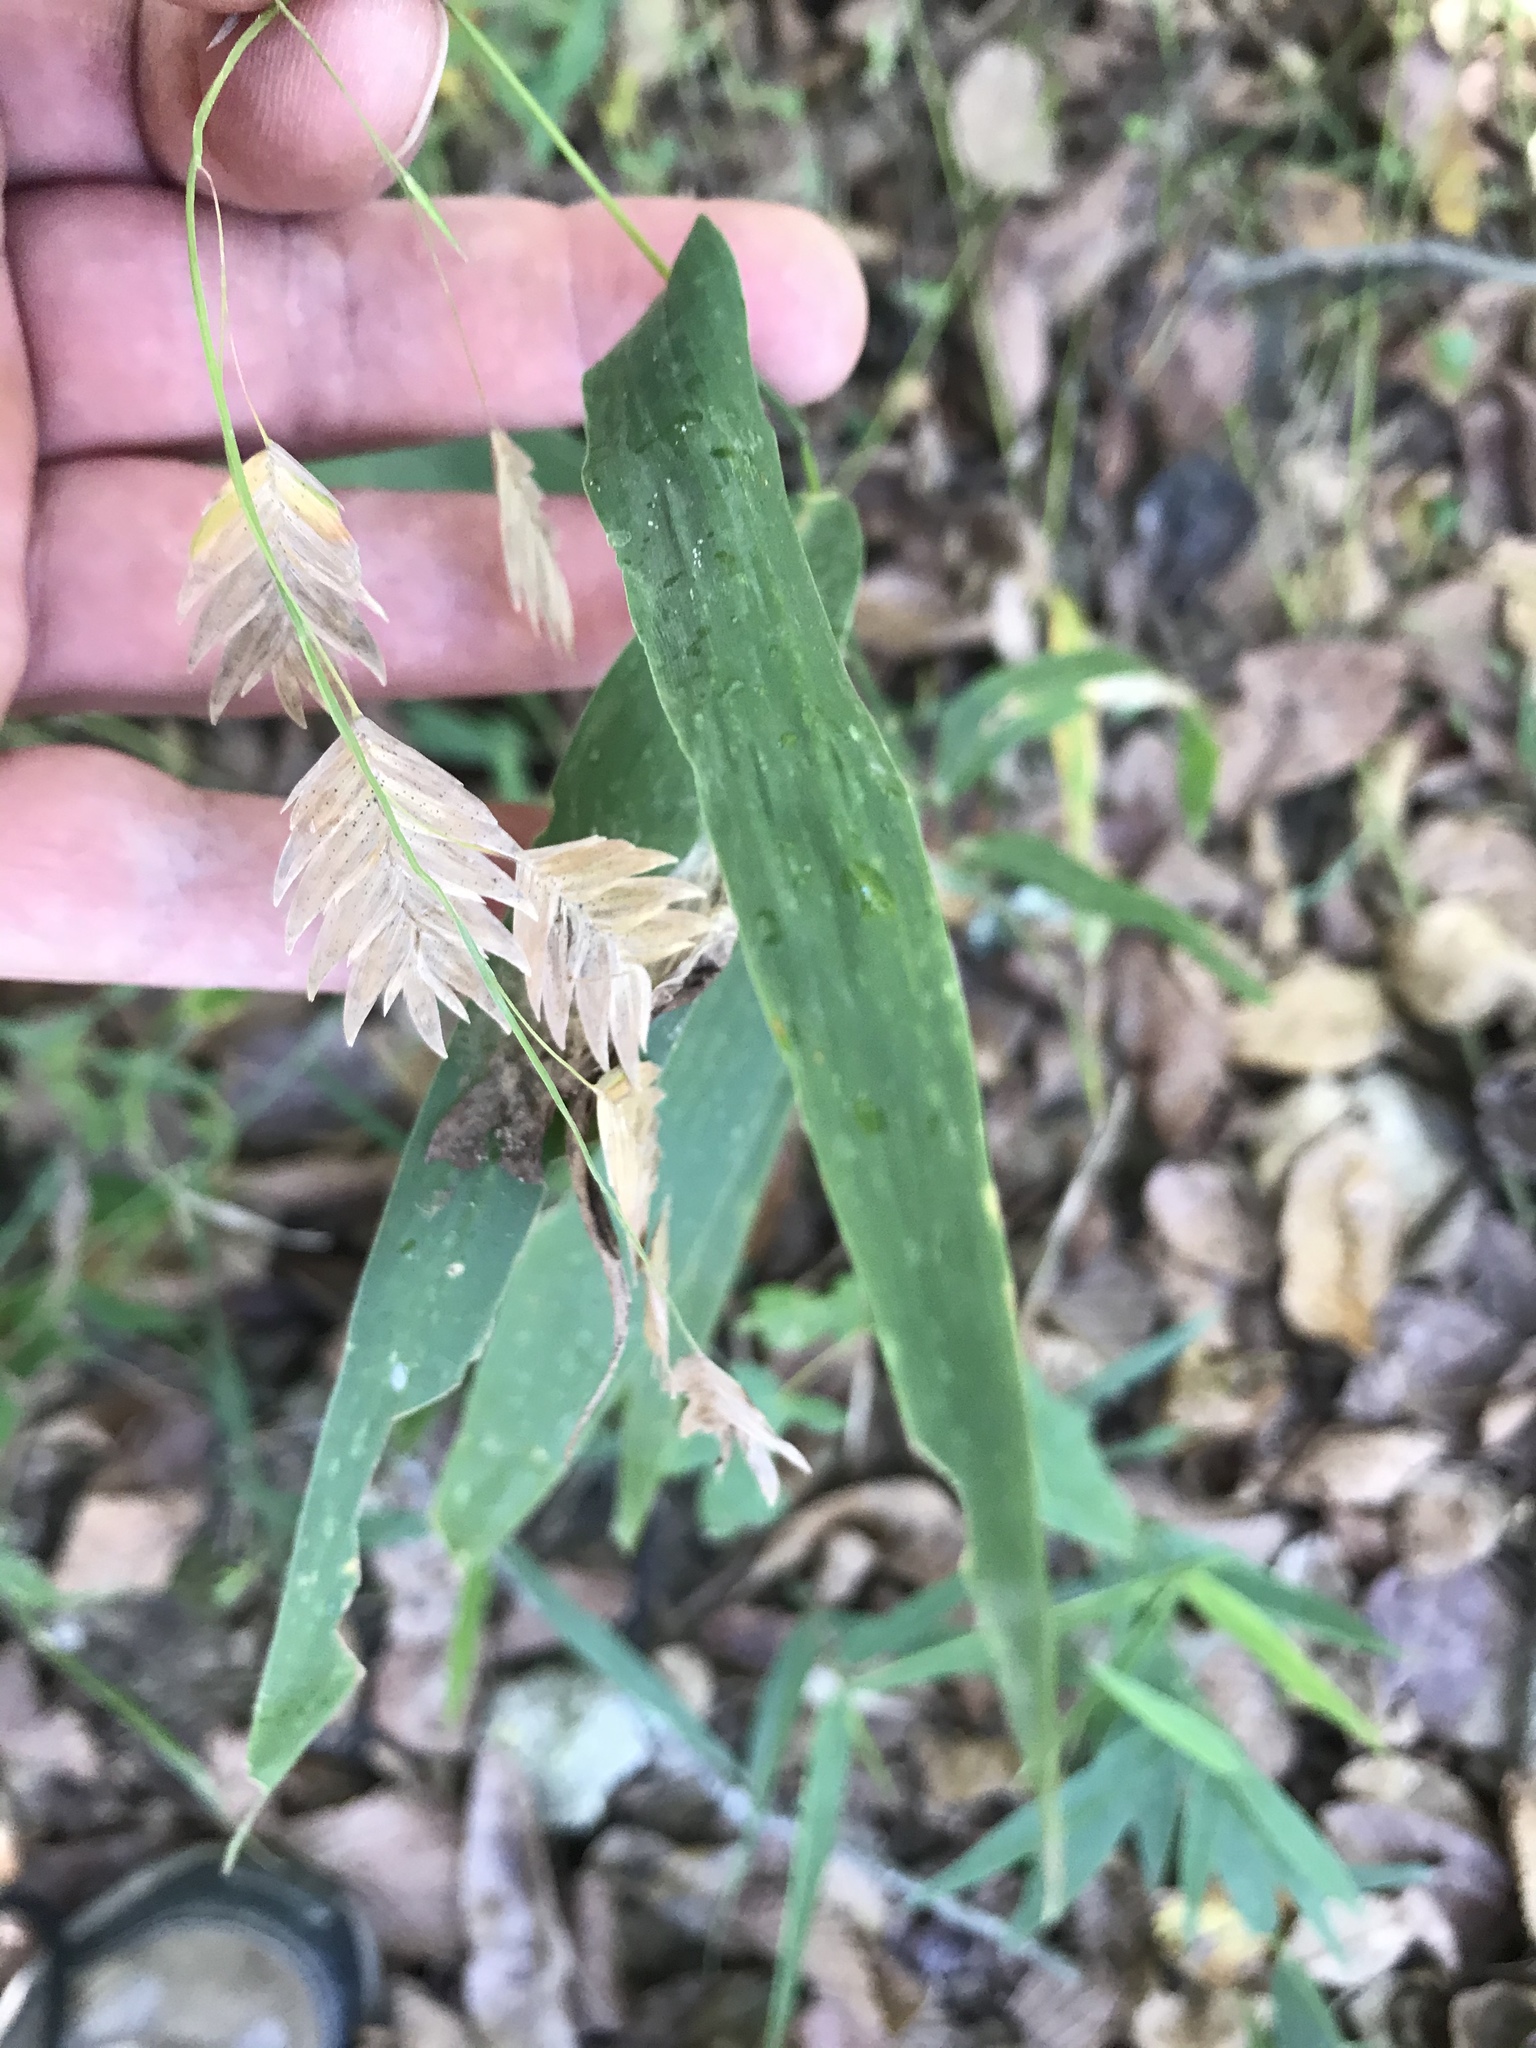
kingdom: Plantae
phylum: Tracheophyta
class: Liliopsida
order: Poales
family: Poaceae
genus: Chasmanthium
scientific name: Chasmanthium latifolium
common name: Broad-leaved chasmanthium
